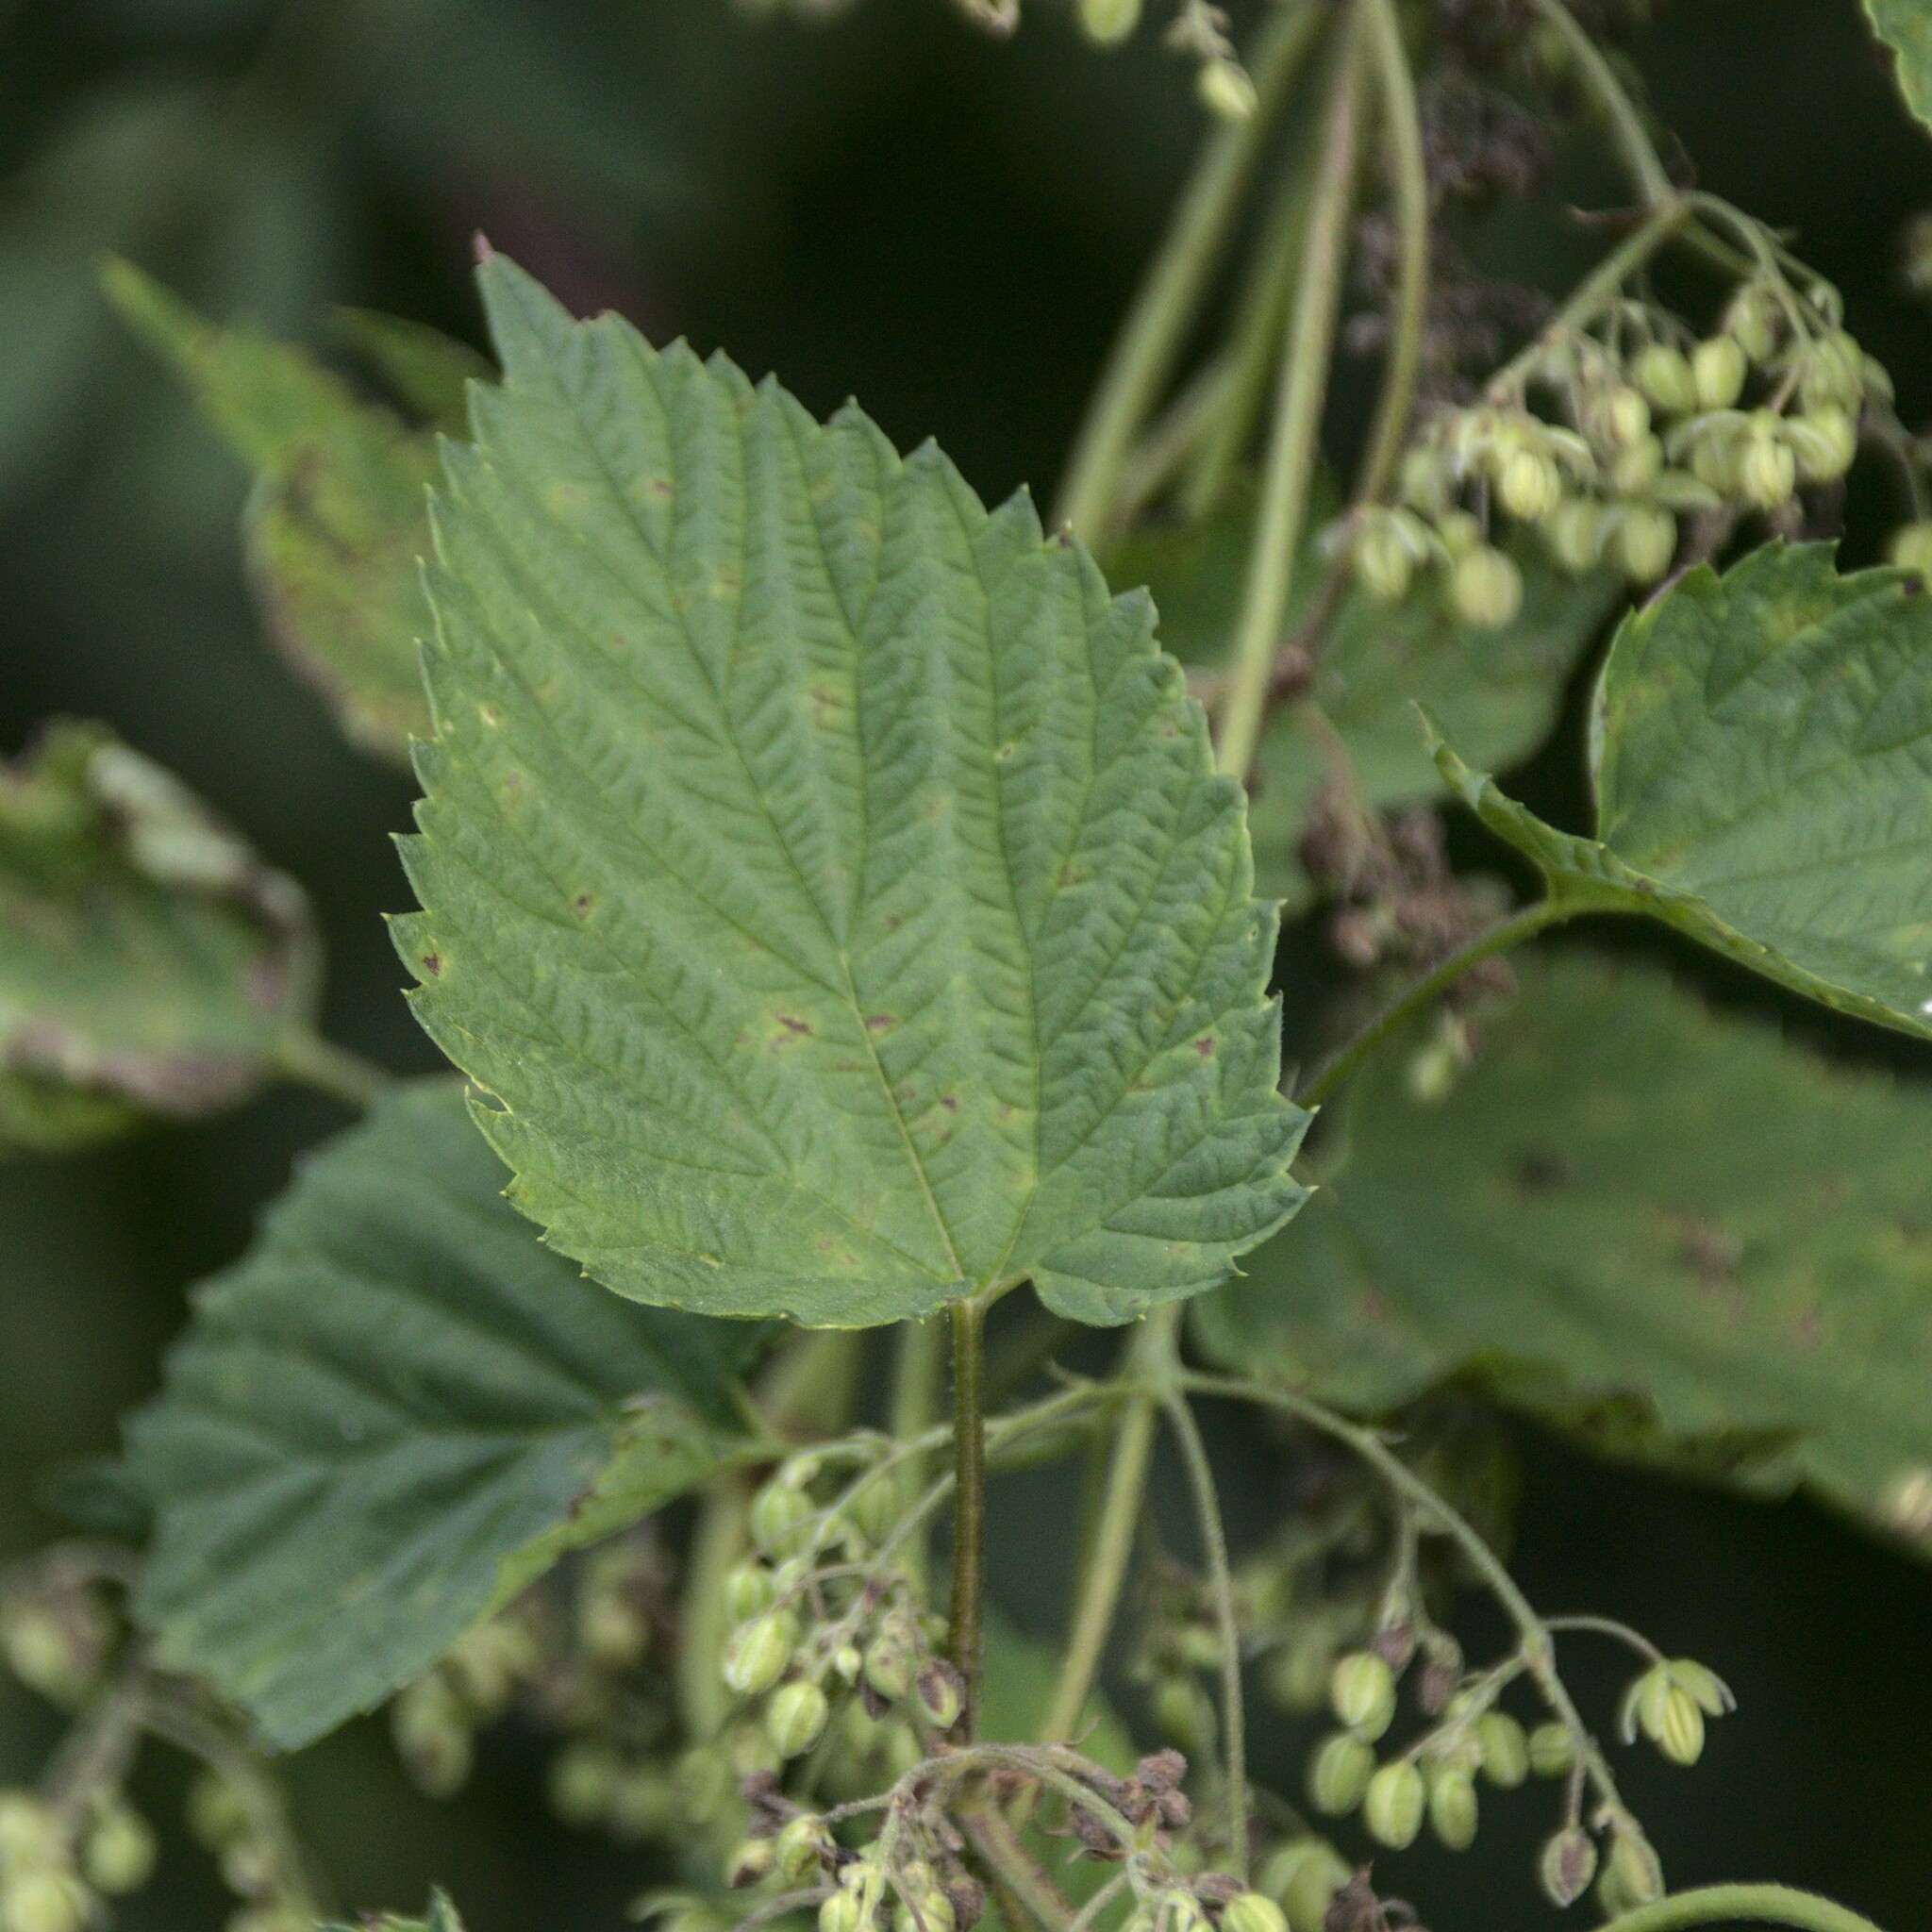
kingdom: Plantae
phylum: Tracheophyta
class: Magnoliopsida
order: Rosales
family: Cannabaceae
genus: Humulus
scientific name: Humulus lupulus
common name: Hop
